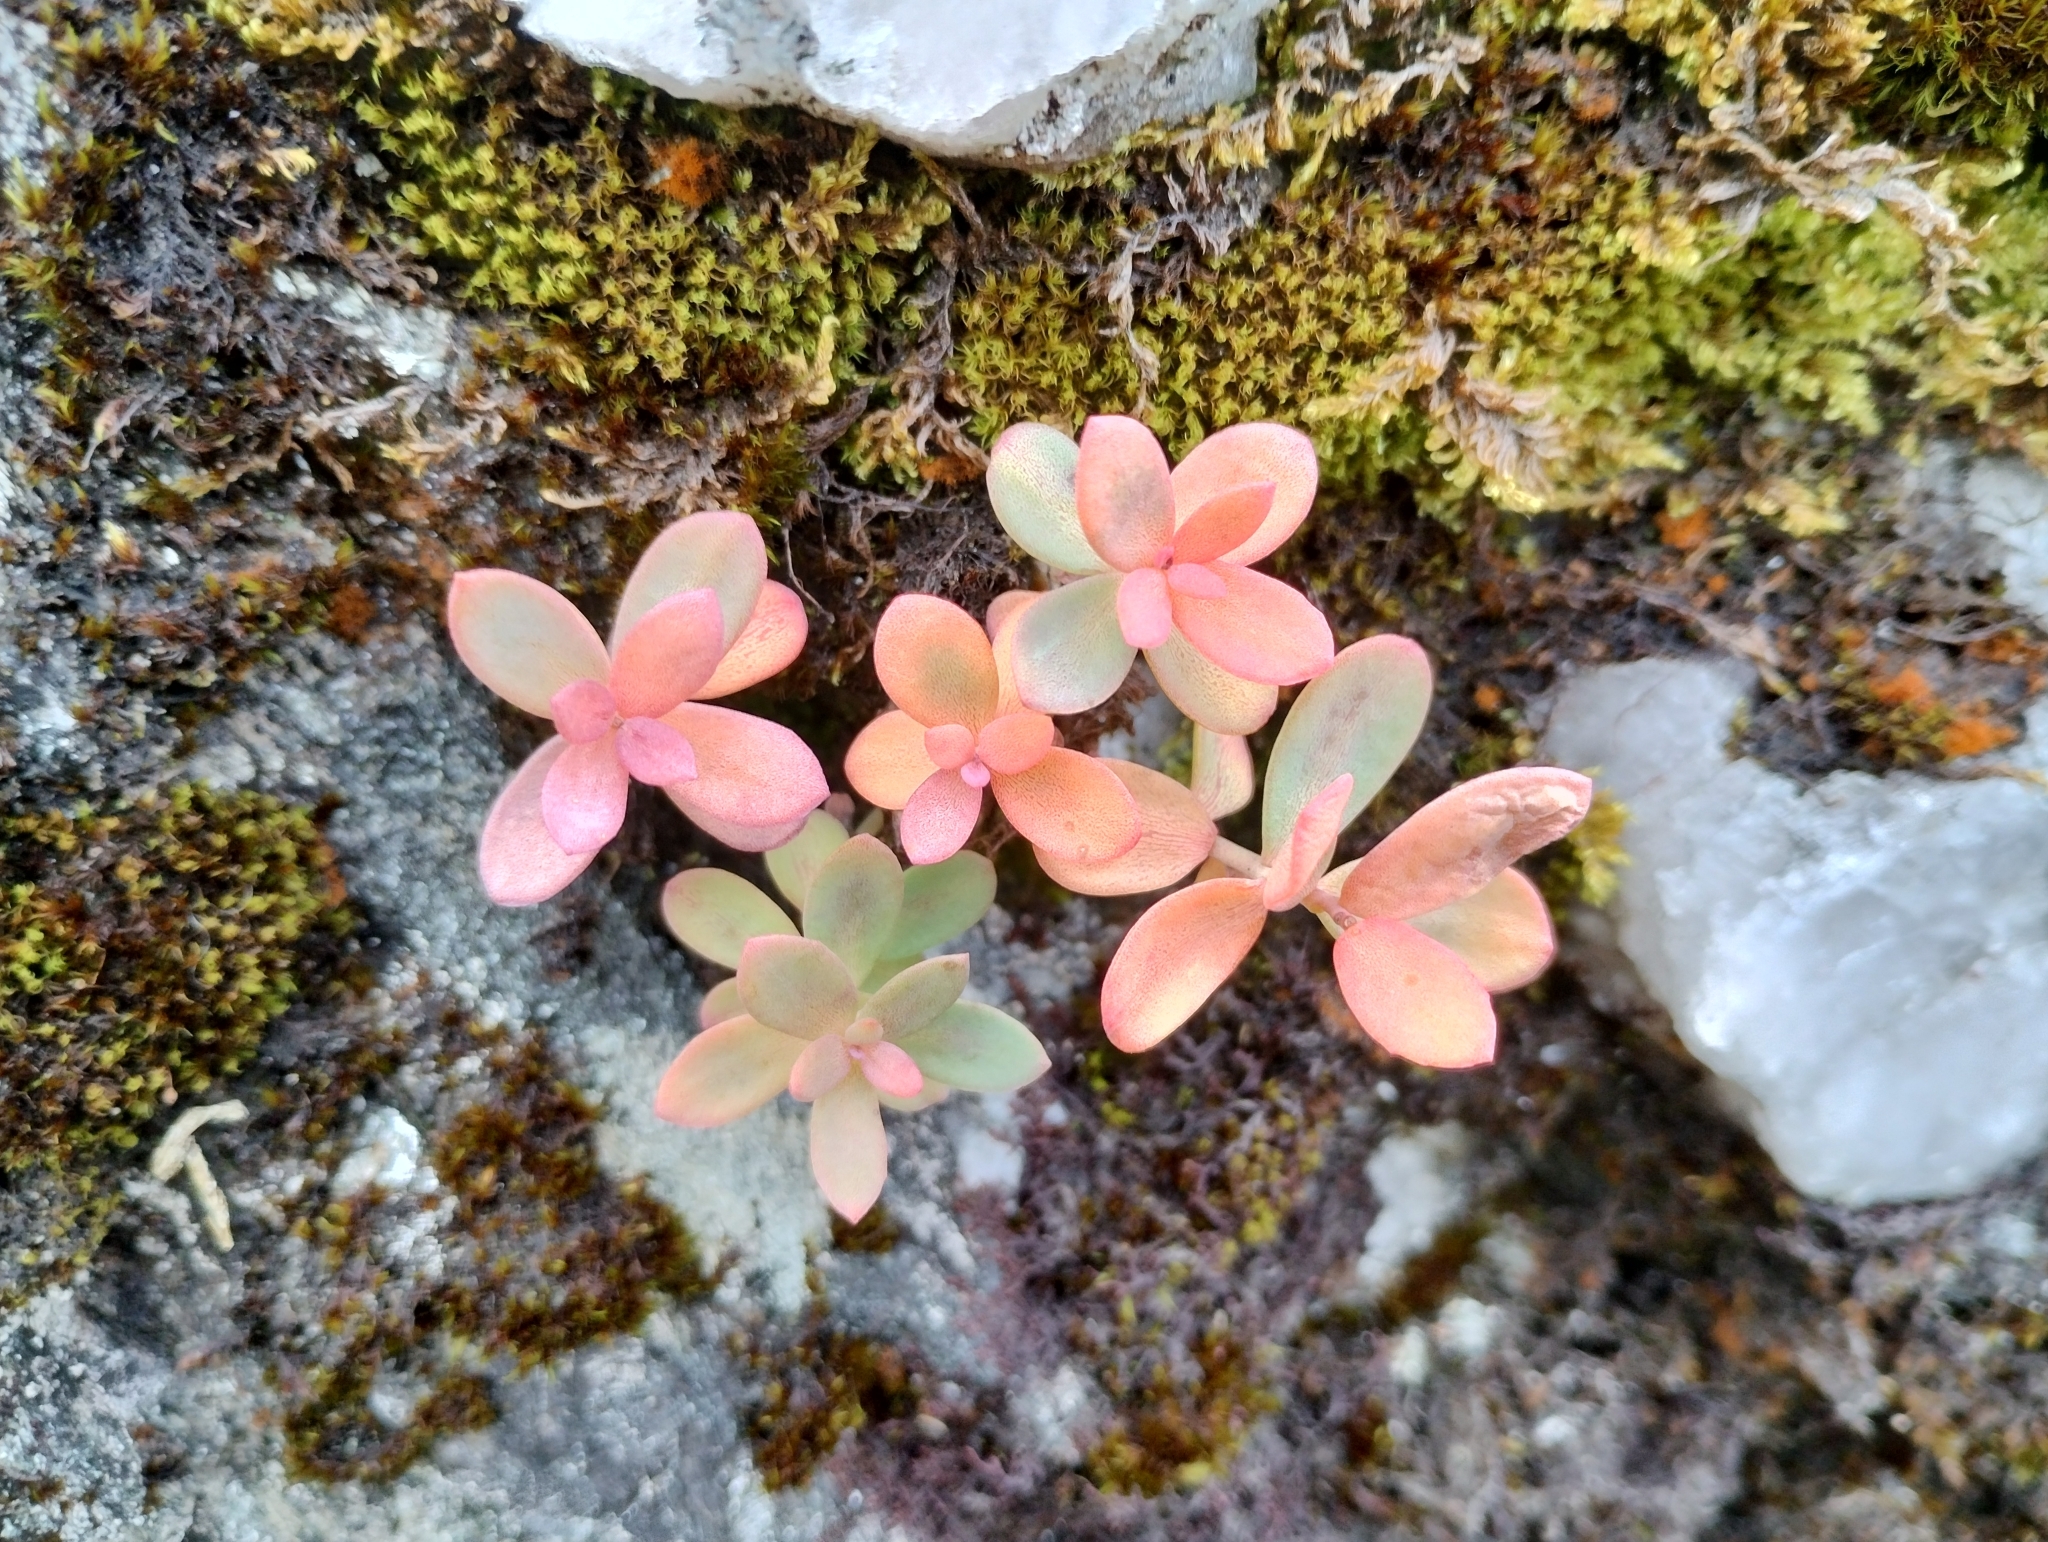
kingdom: Plantae
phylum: Tracheophyta
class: Magnoliopsida
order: Saxifragales
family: Crassulaceae
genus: Rhodiola
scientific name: Rhodiola rosea
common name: Roseroot
